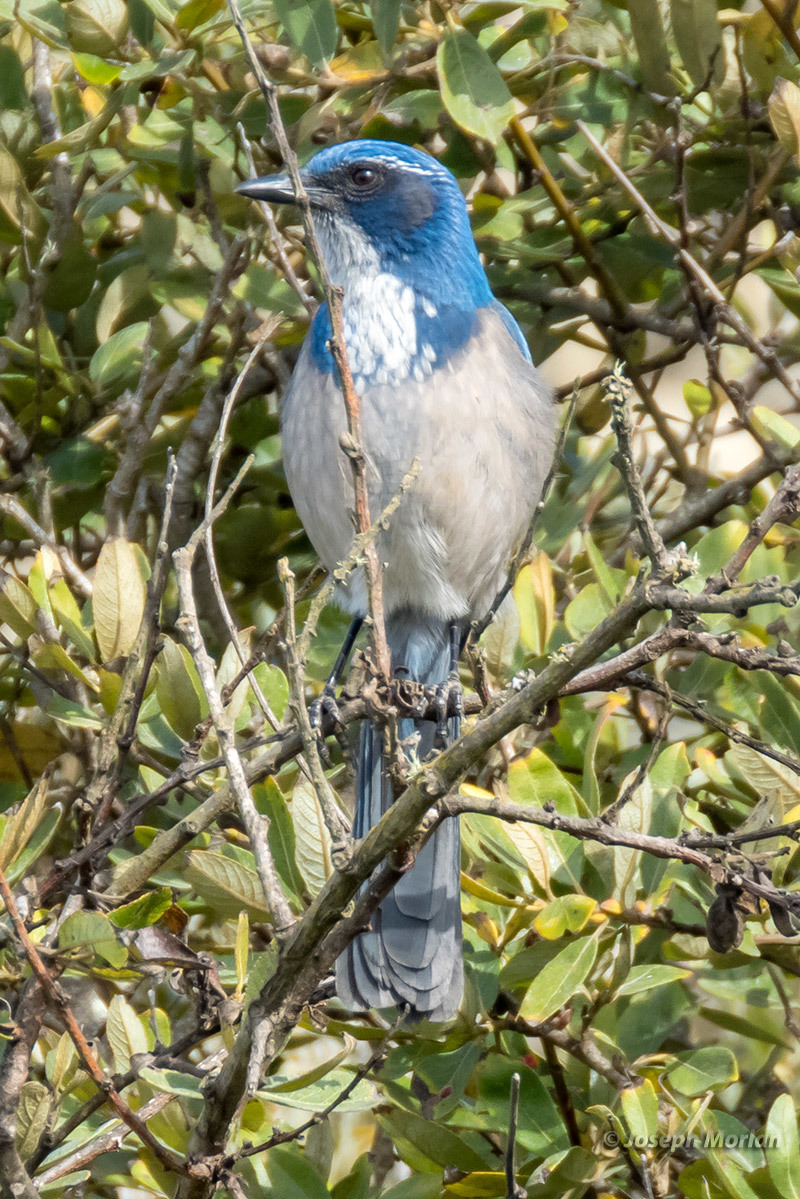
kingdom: Animalia
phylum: Chordata
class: Aves
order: Passeriformes
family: Corvidae
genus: Aphelocoma
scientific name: Aphelocoma californica
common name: California scrub-jay
